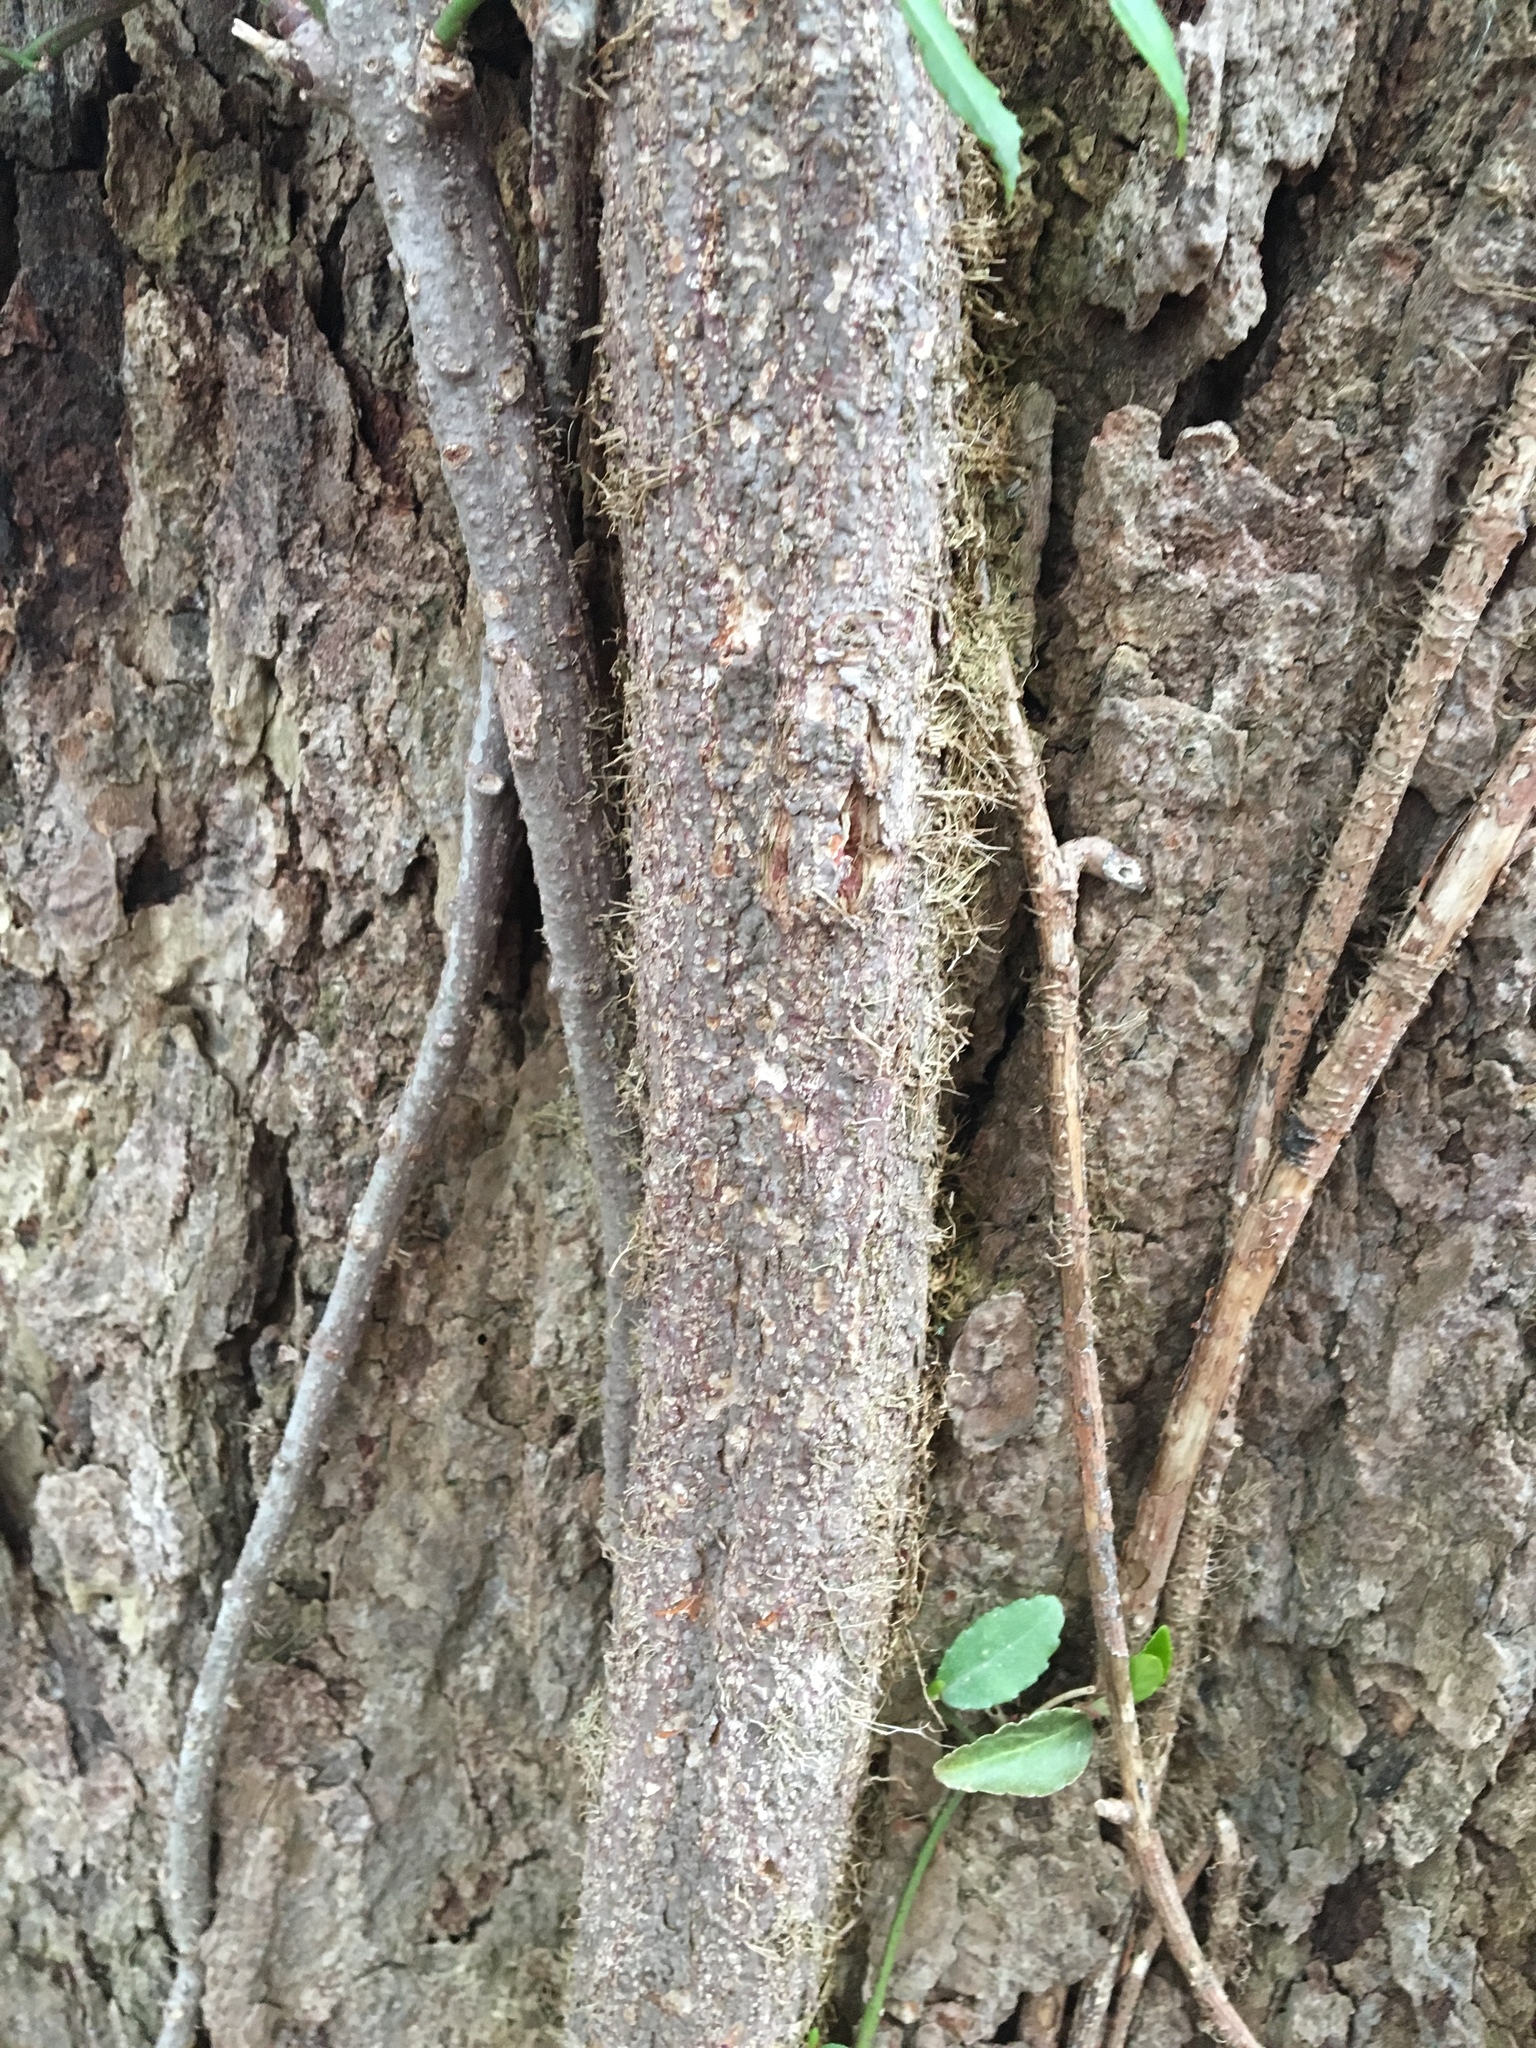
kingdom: Plantae
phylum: Tracheophyta
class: Magnoliopsida
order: Sapindales
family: Anacardiaceae
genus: Toxicodendron
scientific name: Toxicodendron radicans
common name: Poison ivy
